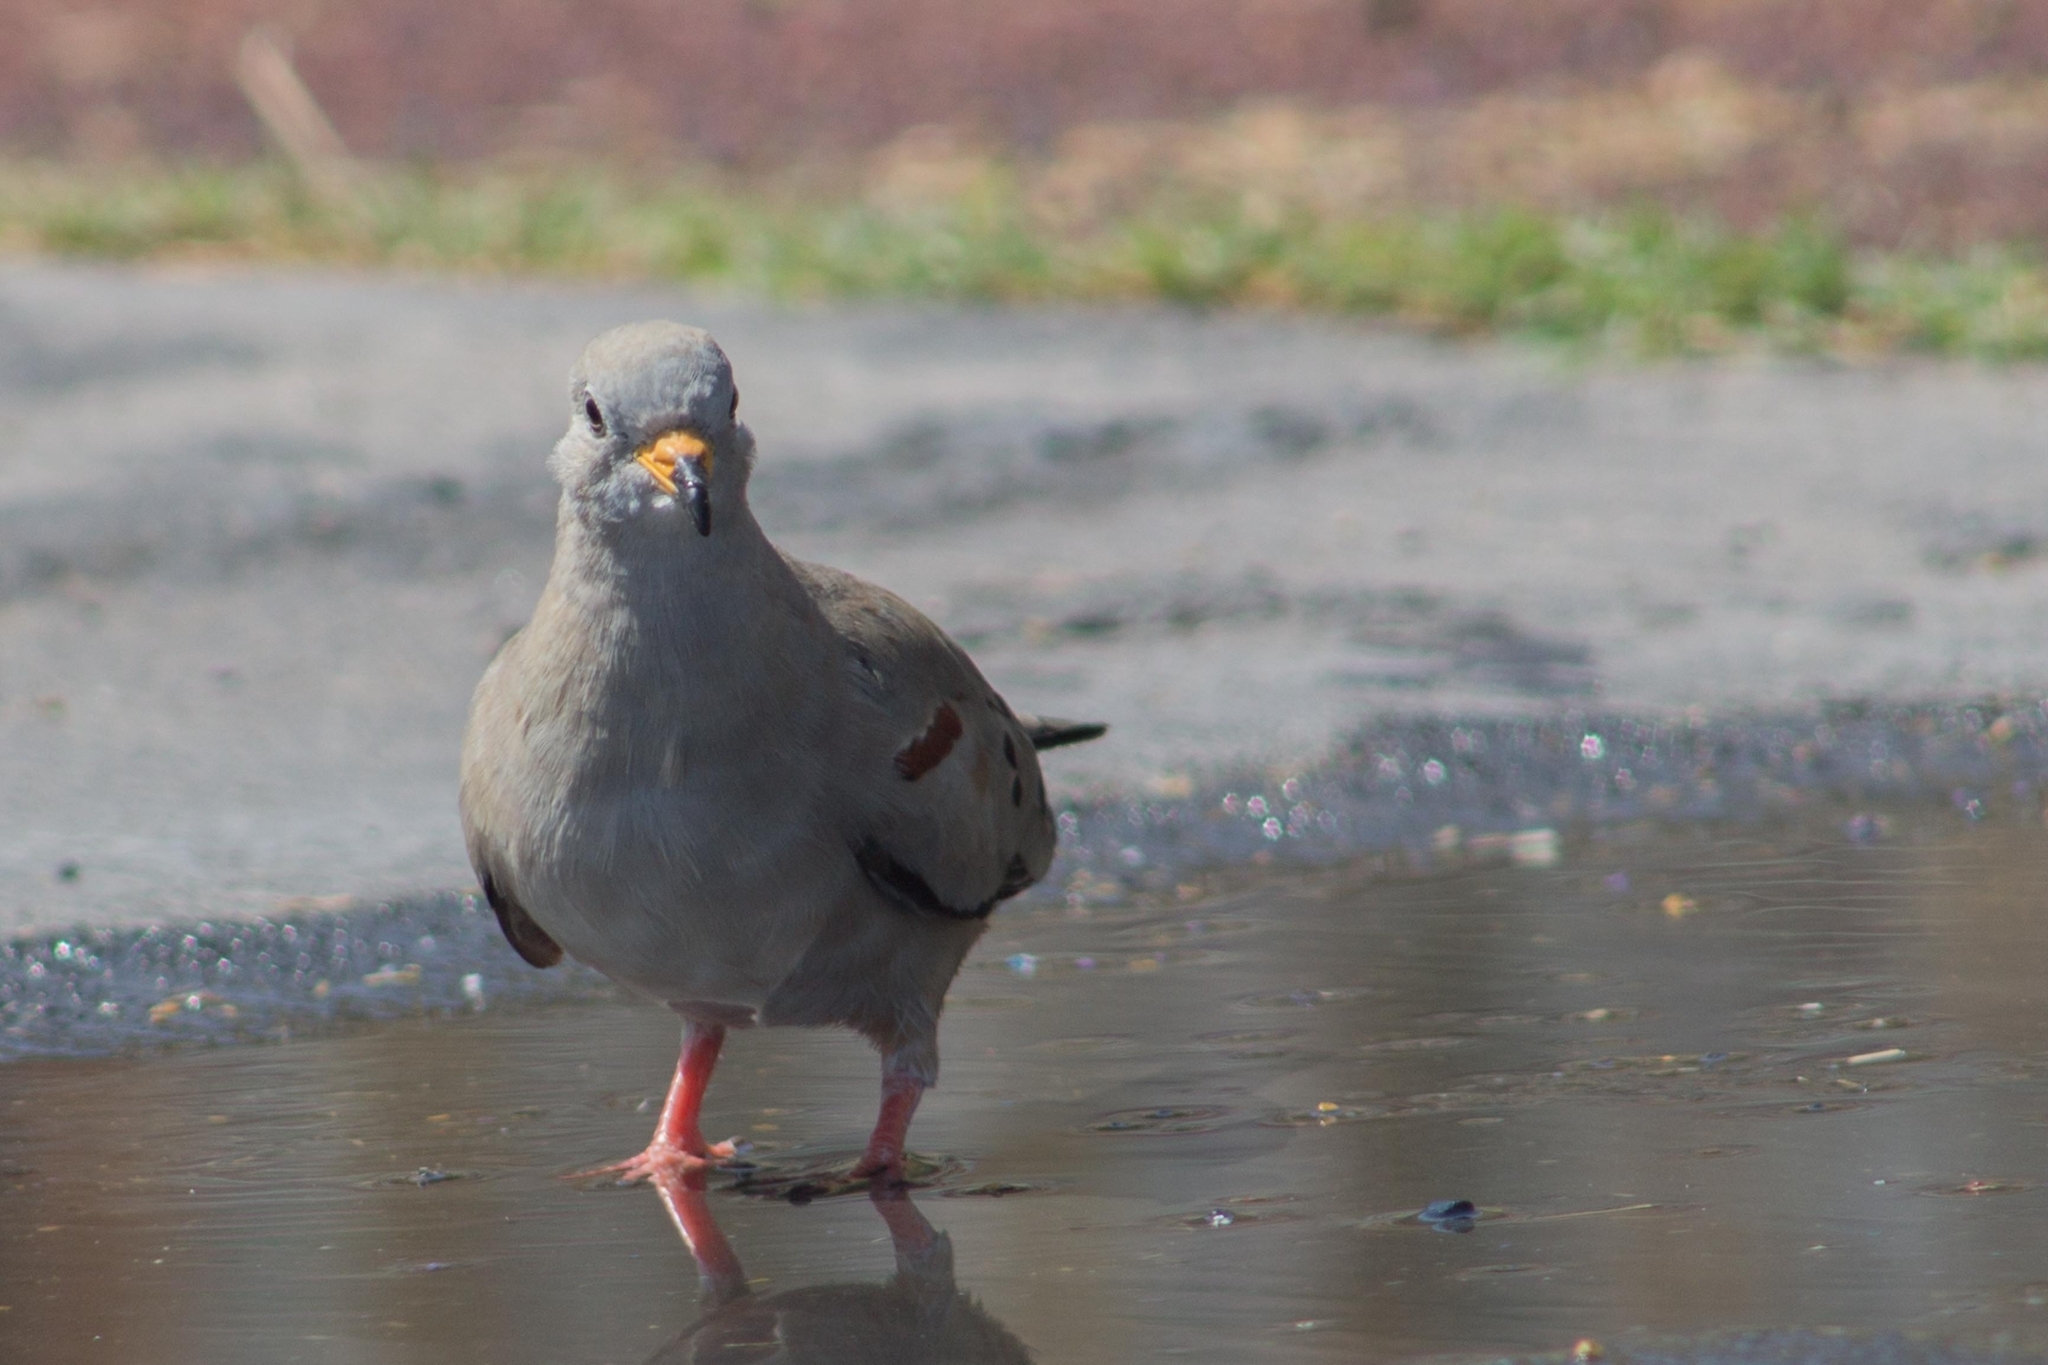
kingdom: Animalia
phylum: Chordata
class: Aves
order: Columbiformes
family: Columbidae
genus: Columbina
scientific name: Columbina cruziana
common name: Croaking ground dove
